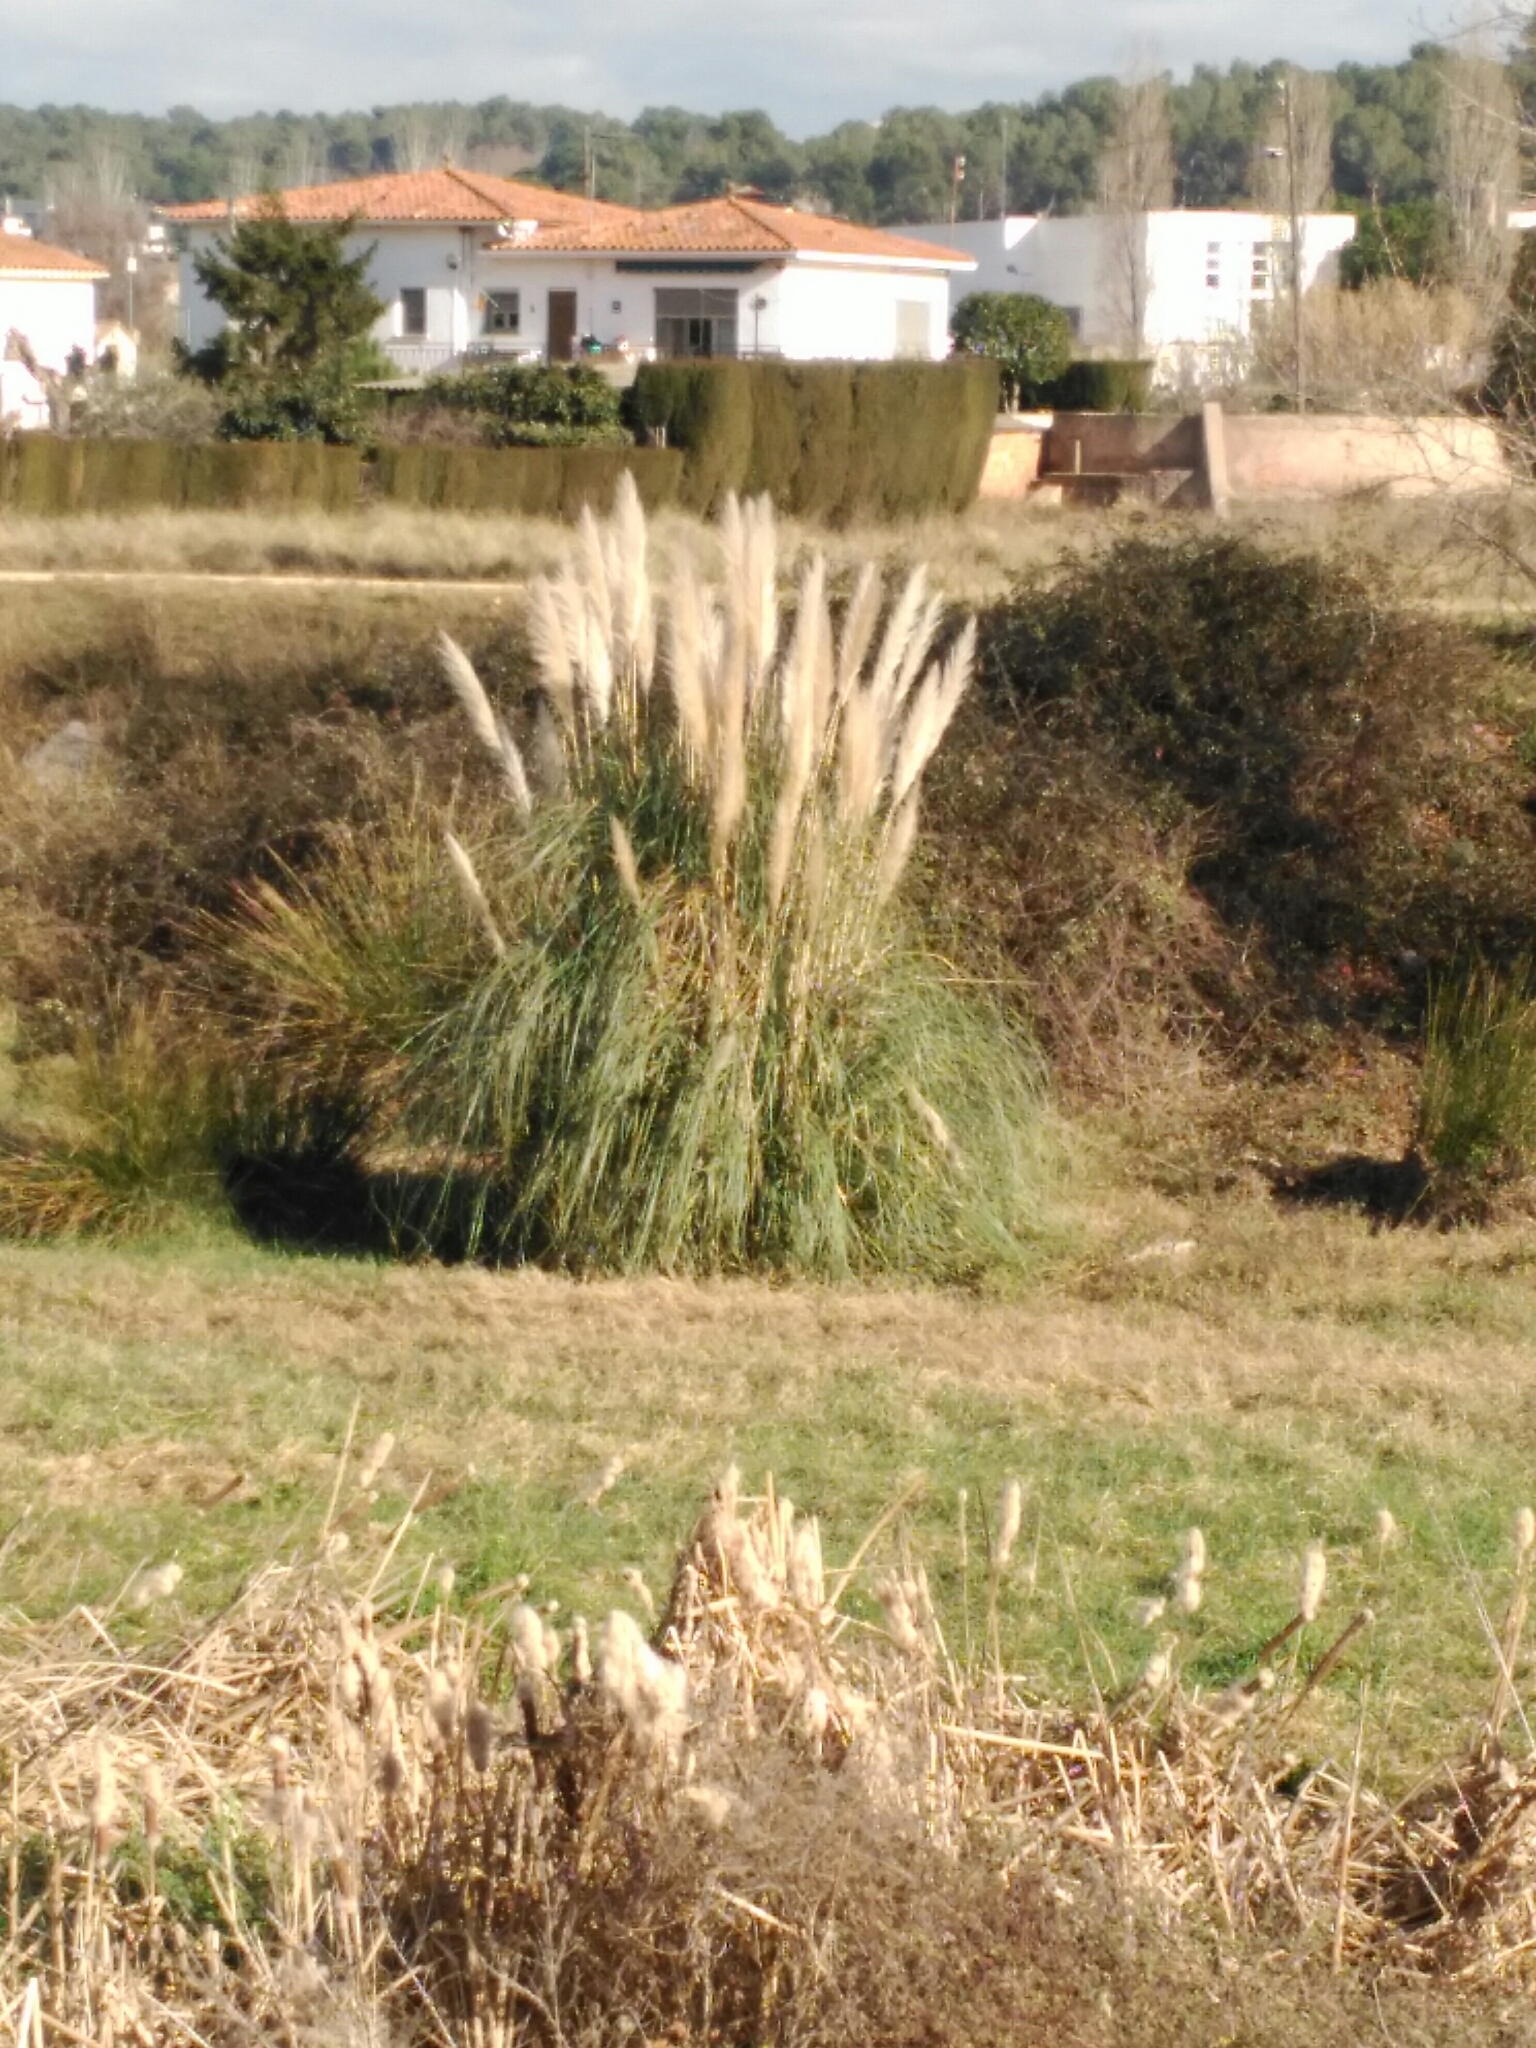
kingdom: Plantae
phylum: Tracheophyta
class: Liliopsida
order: Poales
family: Poaceae
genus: Cortaderia
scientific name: Cortaderia selloana
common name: Uruguayan pampas grass
